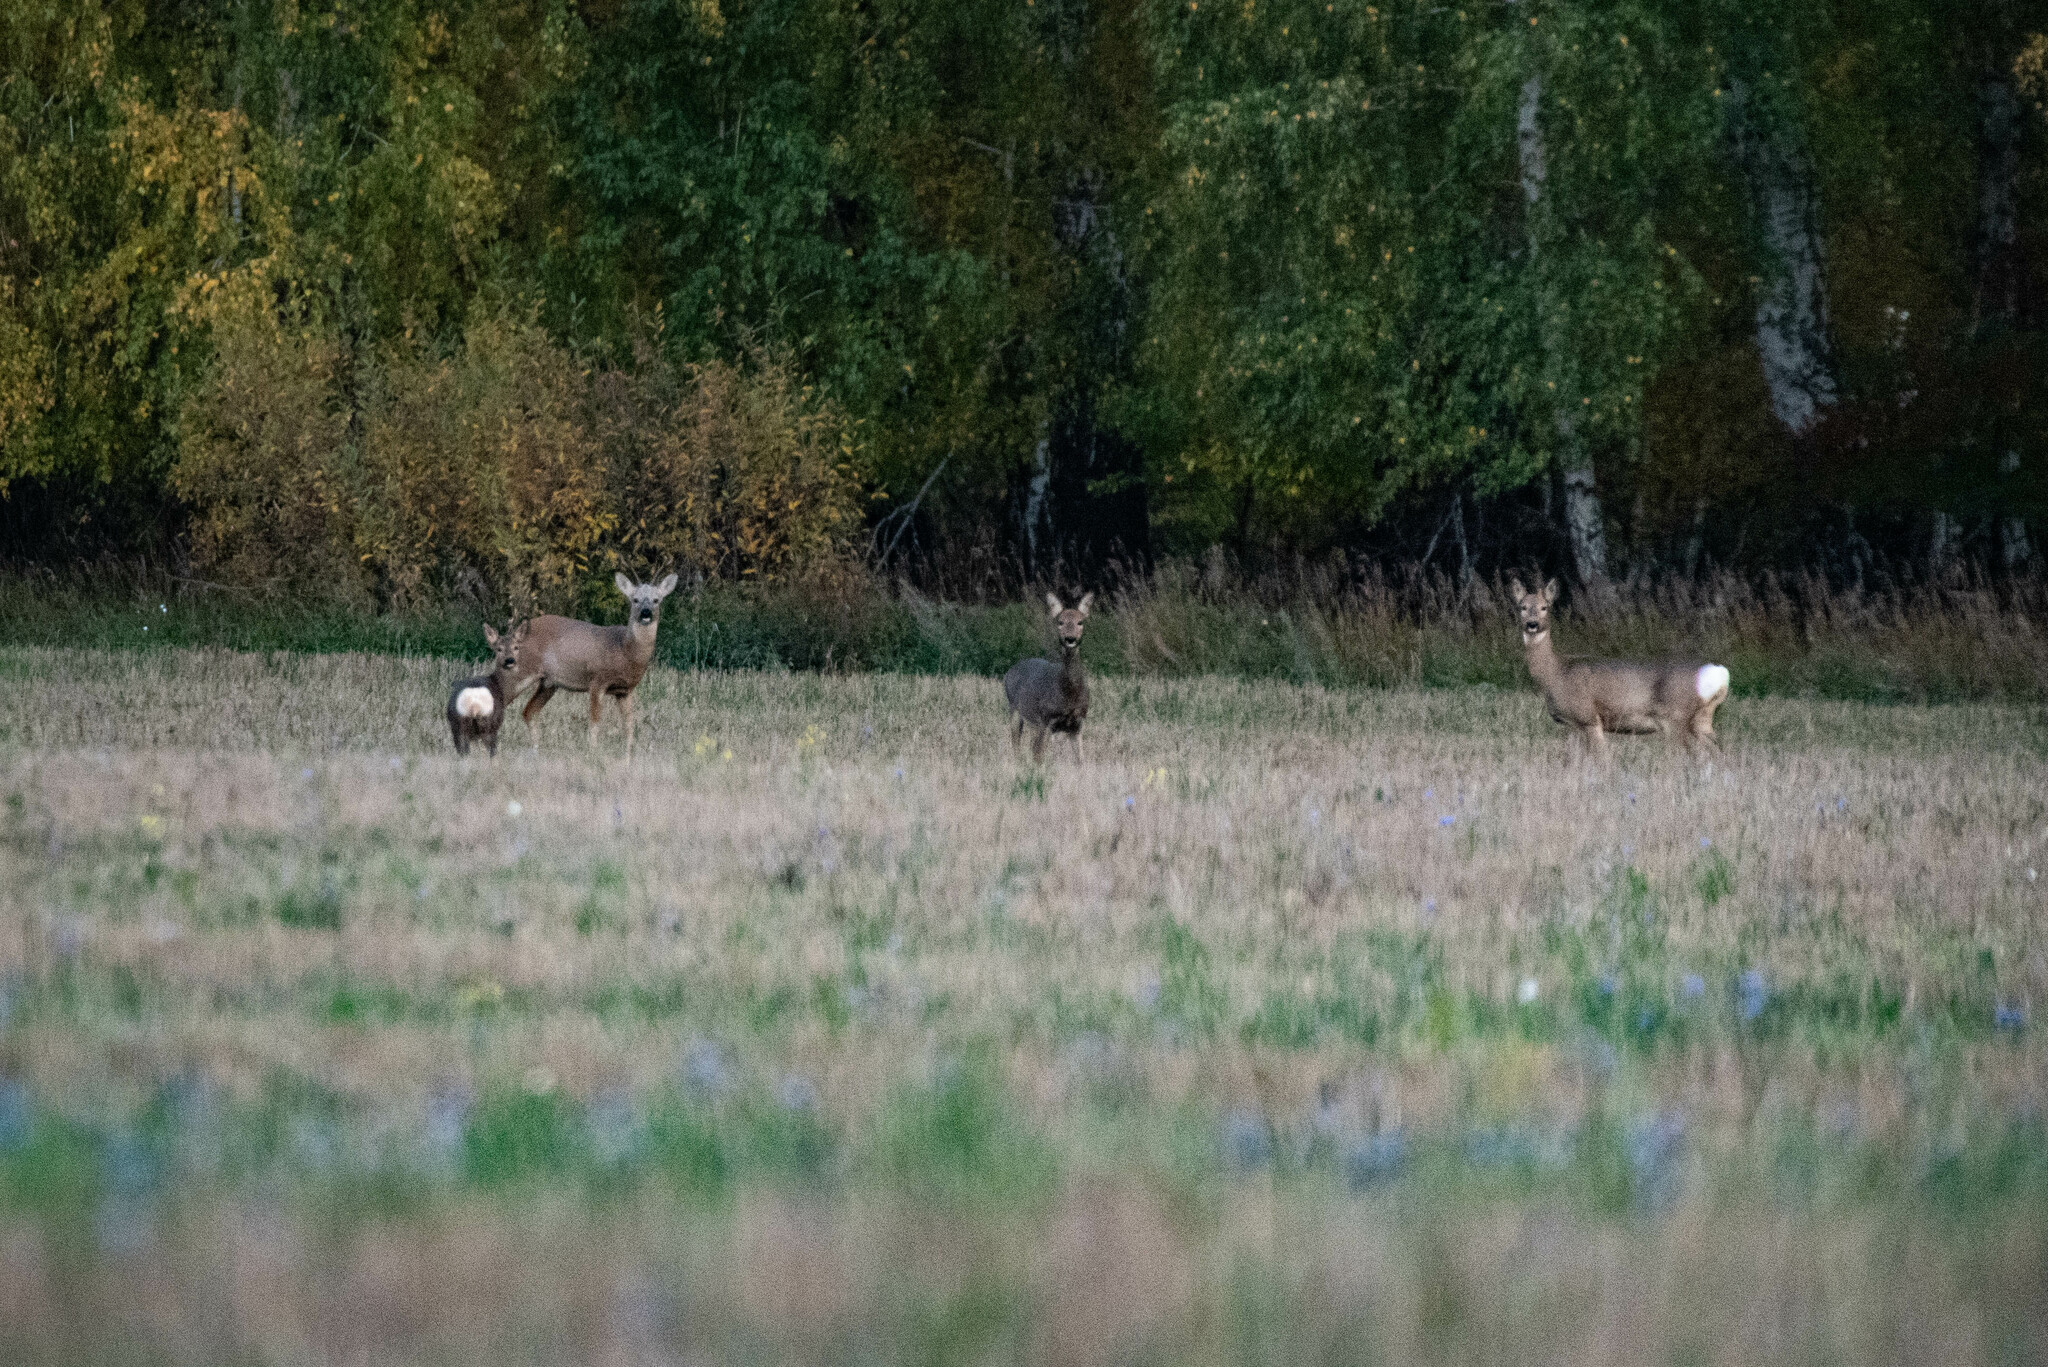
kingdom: Animalia
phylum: Chordata
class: Mammalia
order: Artiodactyla
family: Cervidae
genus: Capreolus
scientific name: Capreolus pygargus
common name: Siberian roe
